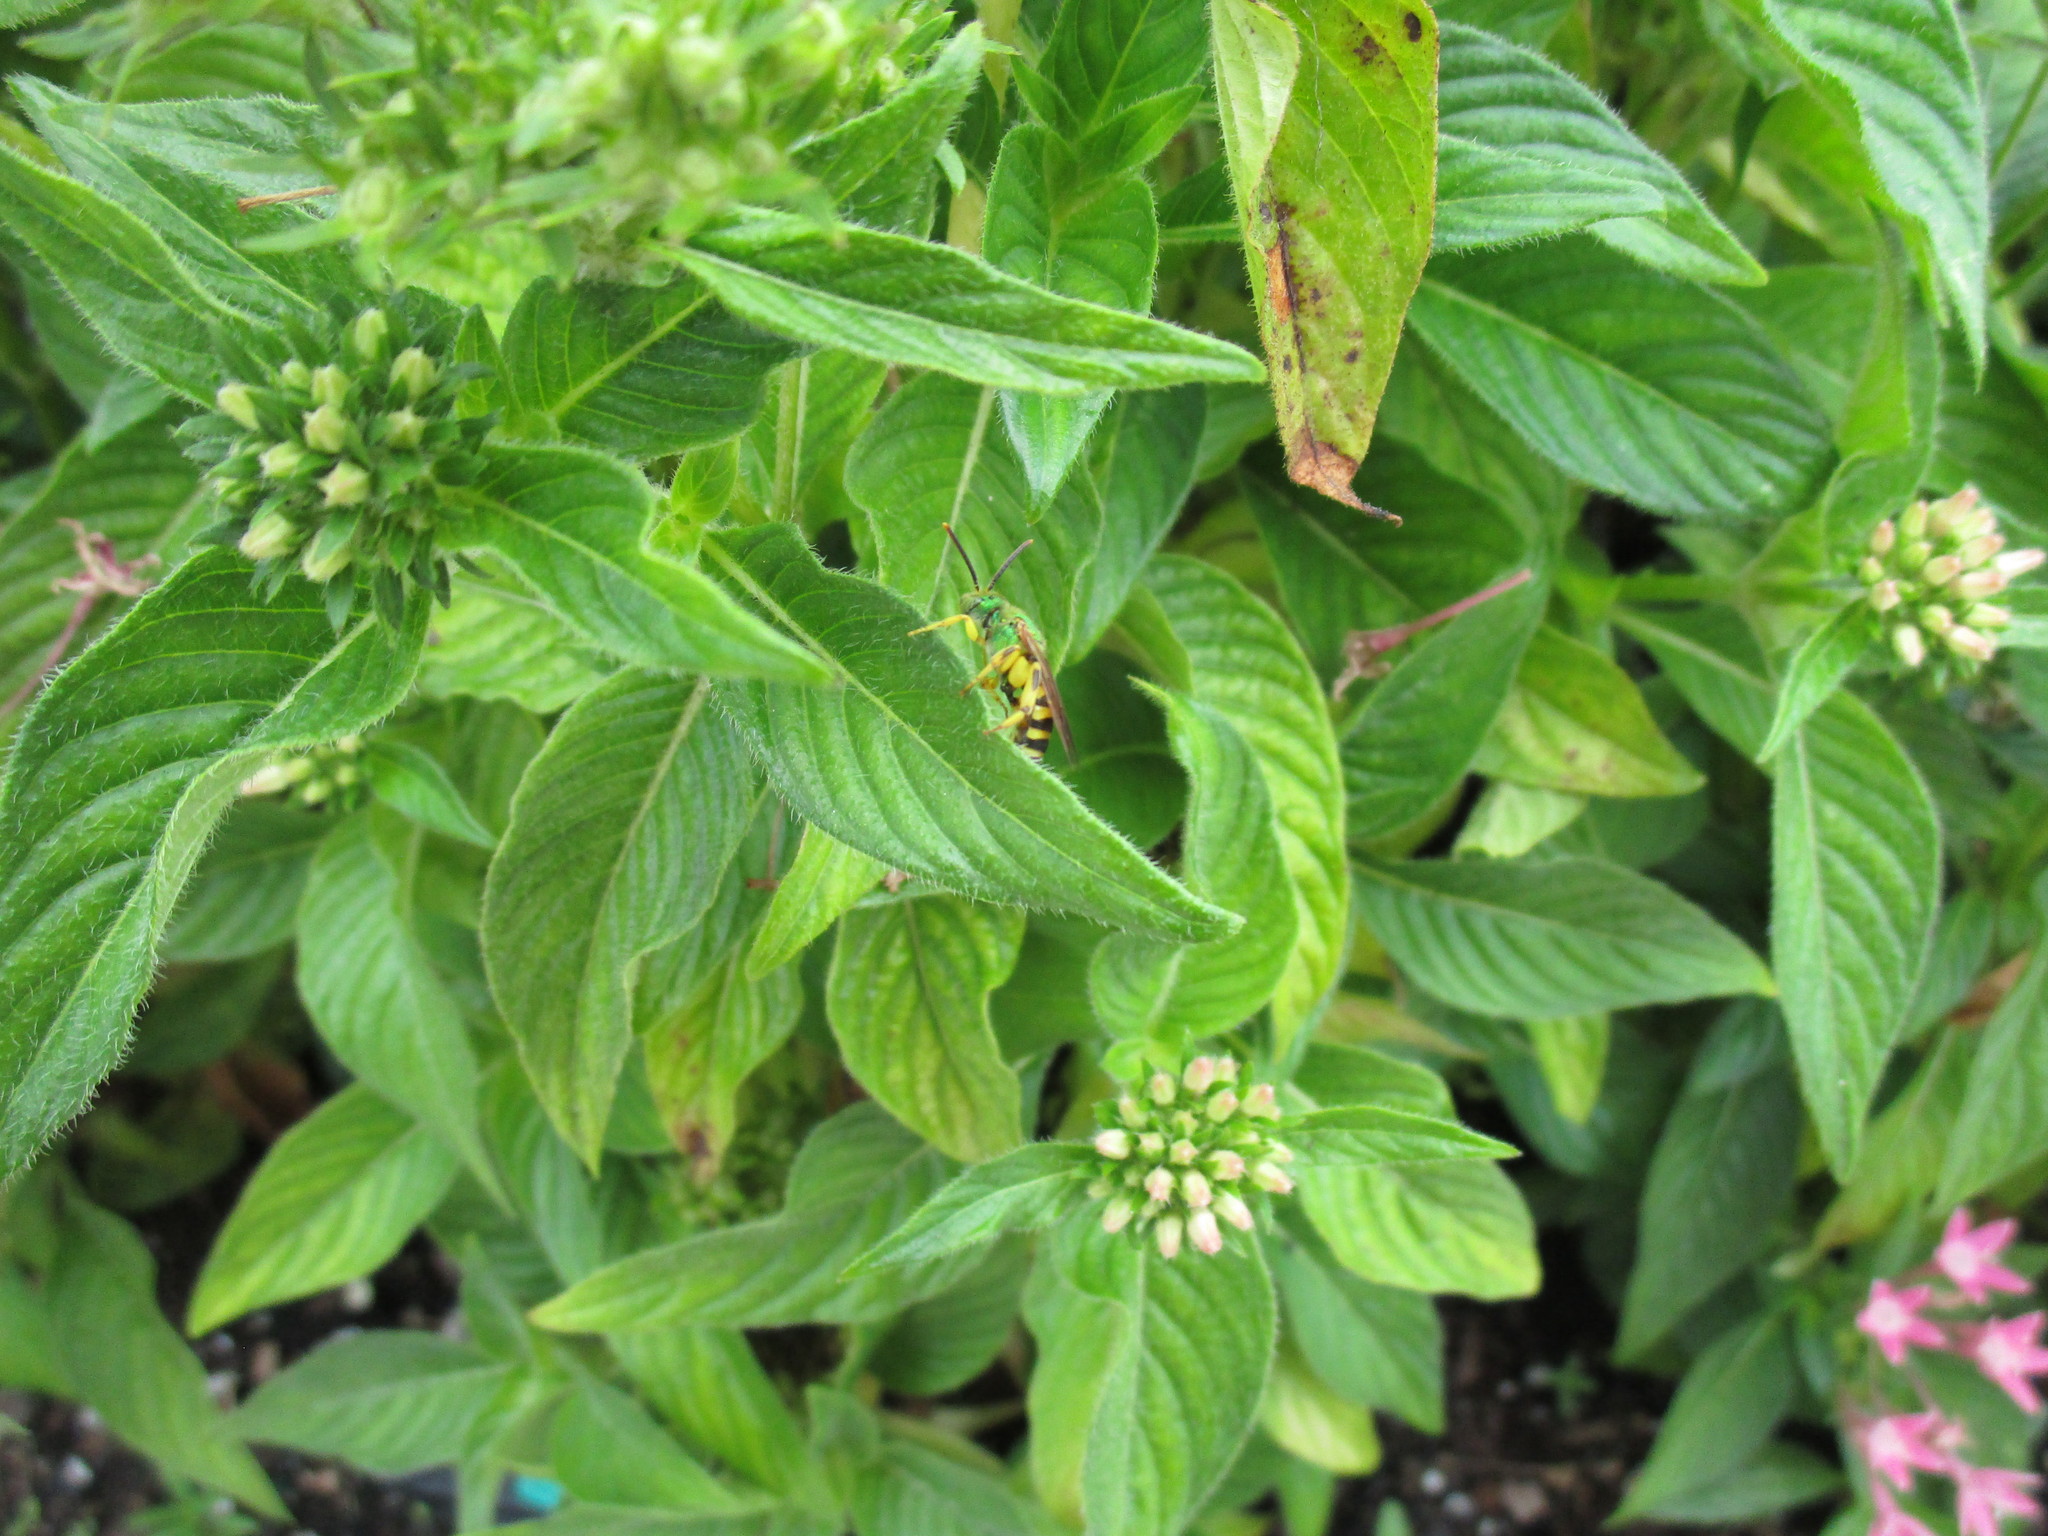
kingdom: Animalia
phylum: Arthropoda
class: Insecta
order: Hymenoptera
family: Halictidae
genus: Agapostemon
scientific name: Agapostemon splendens
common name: Brown-winged striped sweat bee
